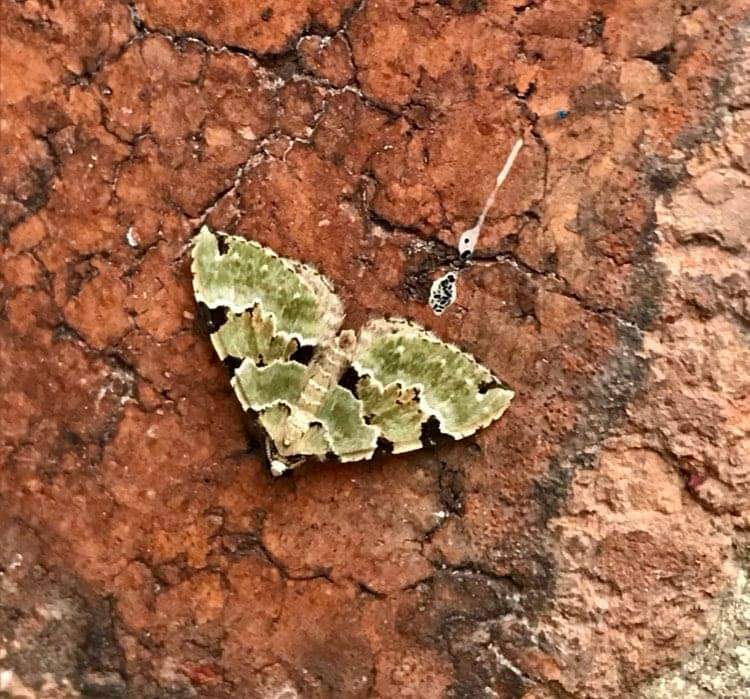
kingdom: Animalia
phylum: Arthropoda
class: Insecta
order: Lepidoptera
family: Geometridae
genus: Colostygia
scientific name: Colostygia pectinataria
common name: Green carpet
